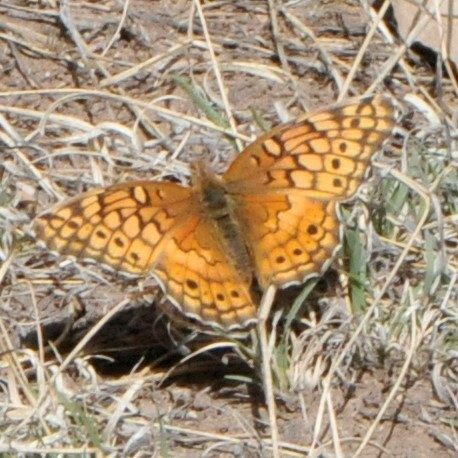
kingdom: Animalia
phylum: Arthropoda
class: Insecta
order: Lepidoptera
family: Nymphalidae
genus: Euptoieta
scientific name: Euptoieta claudia
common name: Variegated fritillary
